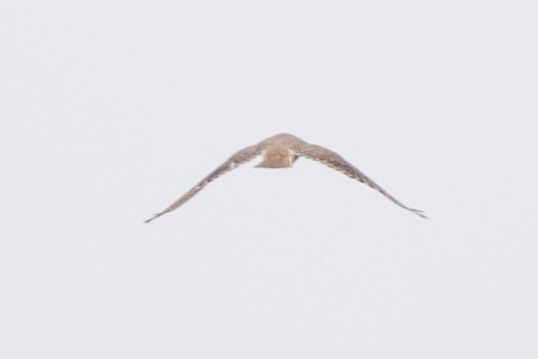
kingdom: Animalia
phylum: Chordata
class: Aves
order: Falconiformes
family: Falconidae
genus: Falco
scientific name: Falco sparverius
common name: American kestrel
